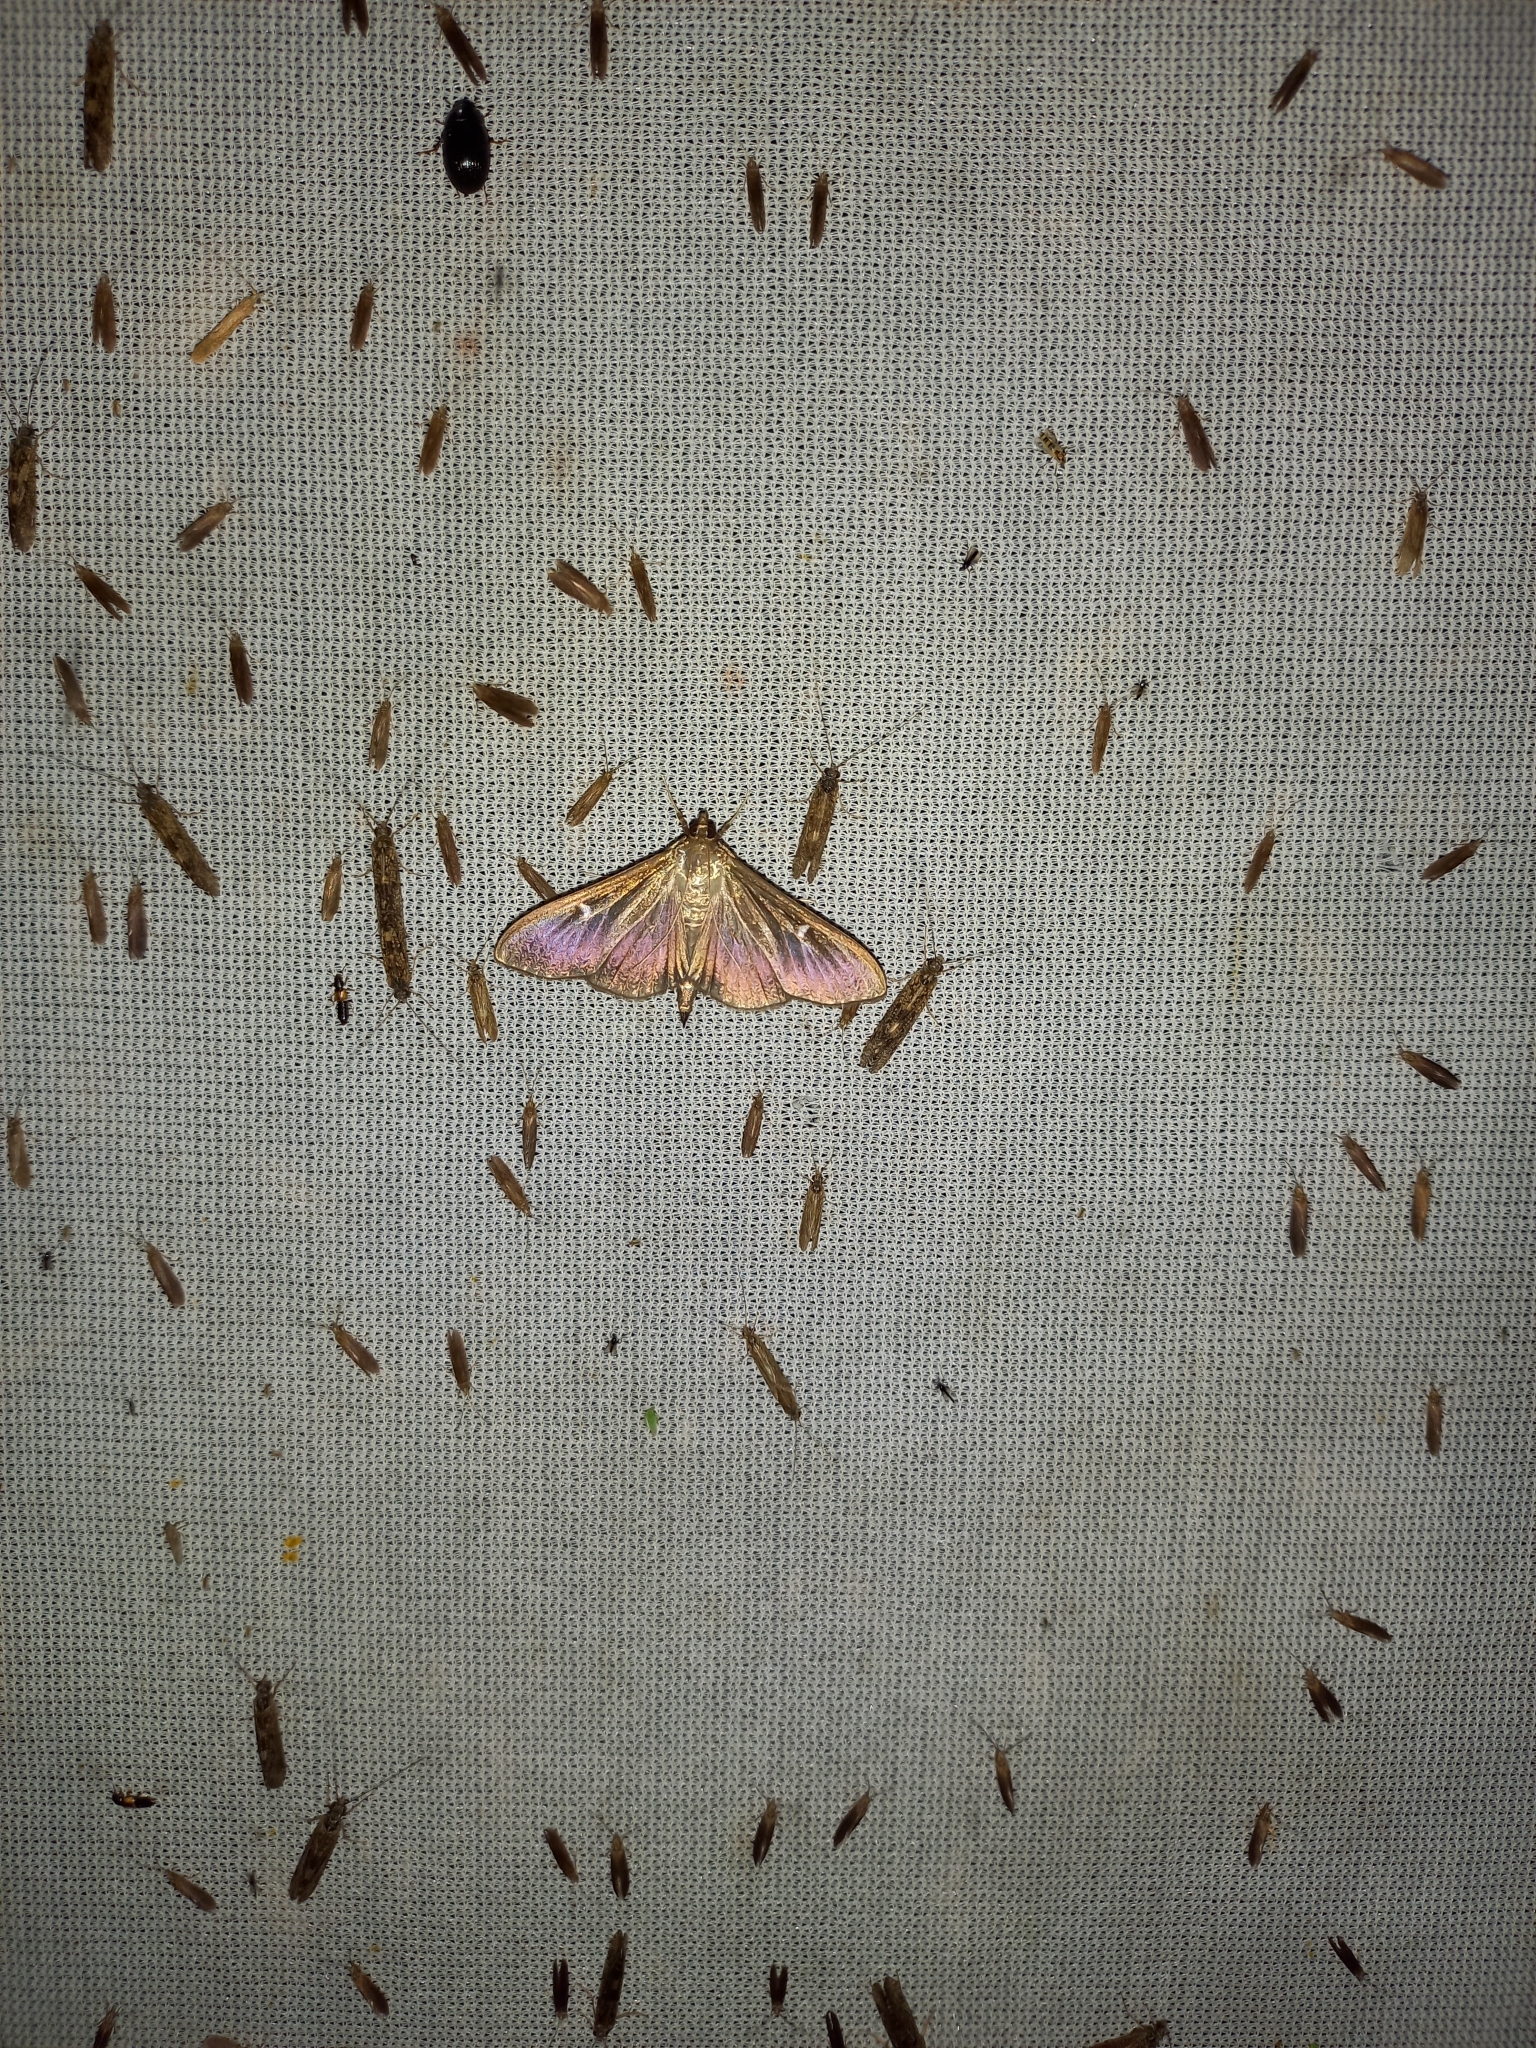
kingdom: Animalia
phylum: Arthropoda
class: Insecta
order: Lepidoptera
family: Crambidae
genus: Cydalima
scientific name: Cydalima perspectalis
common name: Box tree moth
